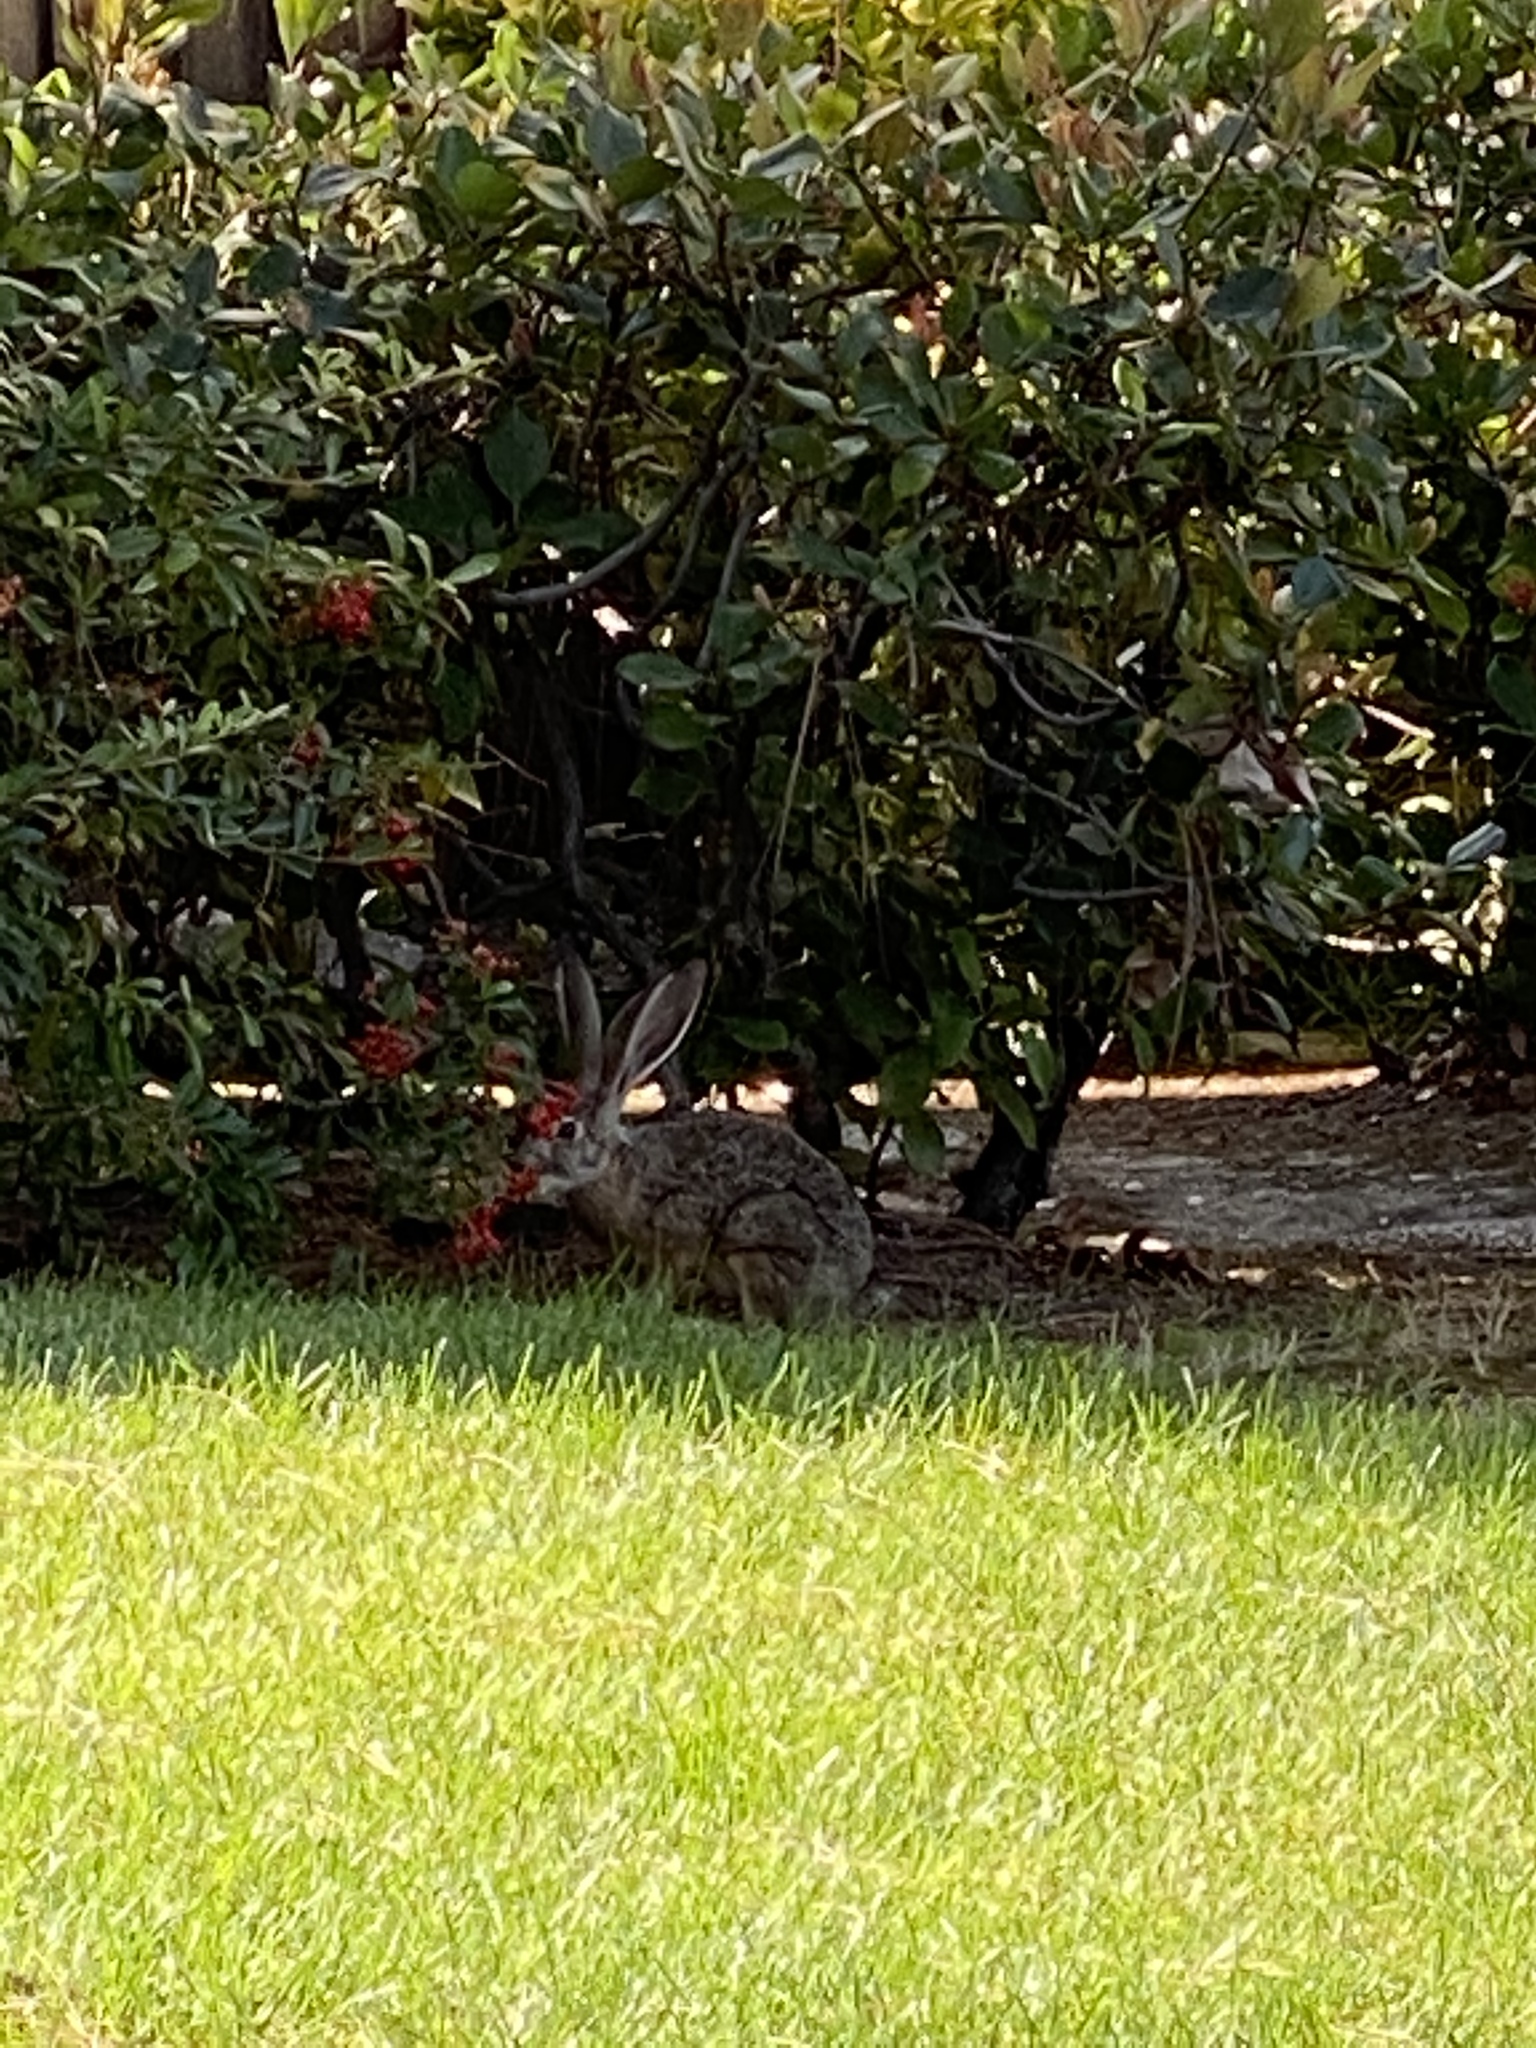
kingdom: Animalia
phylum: Chordata
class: Mammalia
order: Lagomorpha
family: Leporidae
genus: Lepus
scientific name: Lepus californicus
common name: Black-tailed jackrabbit
